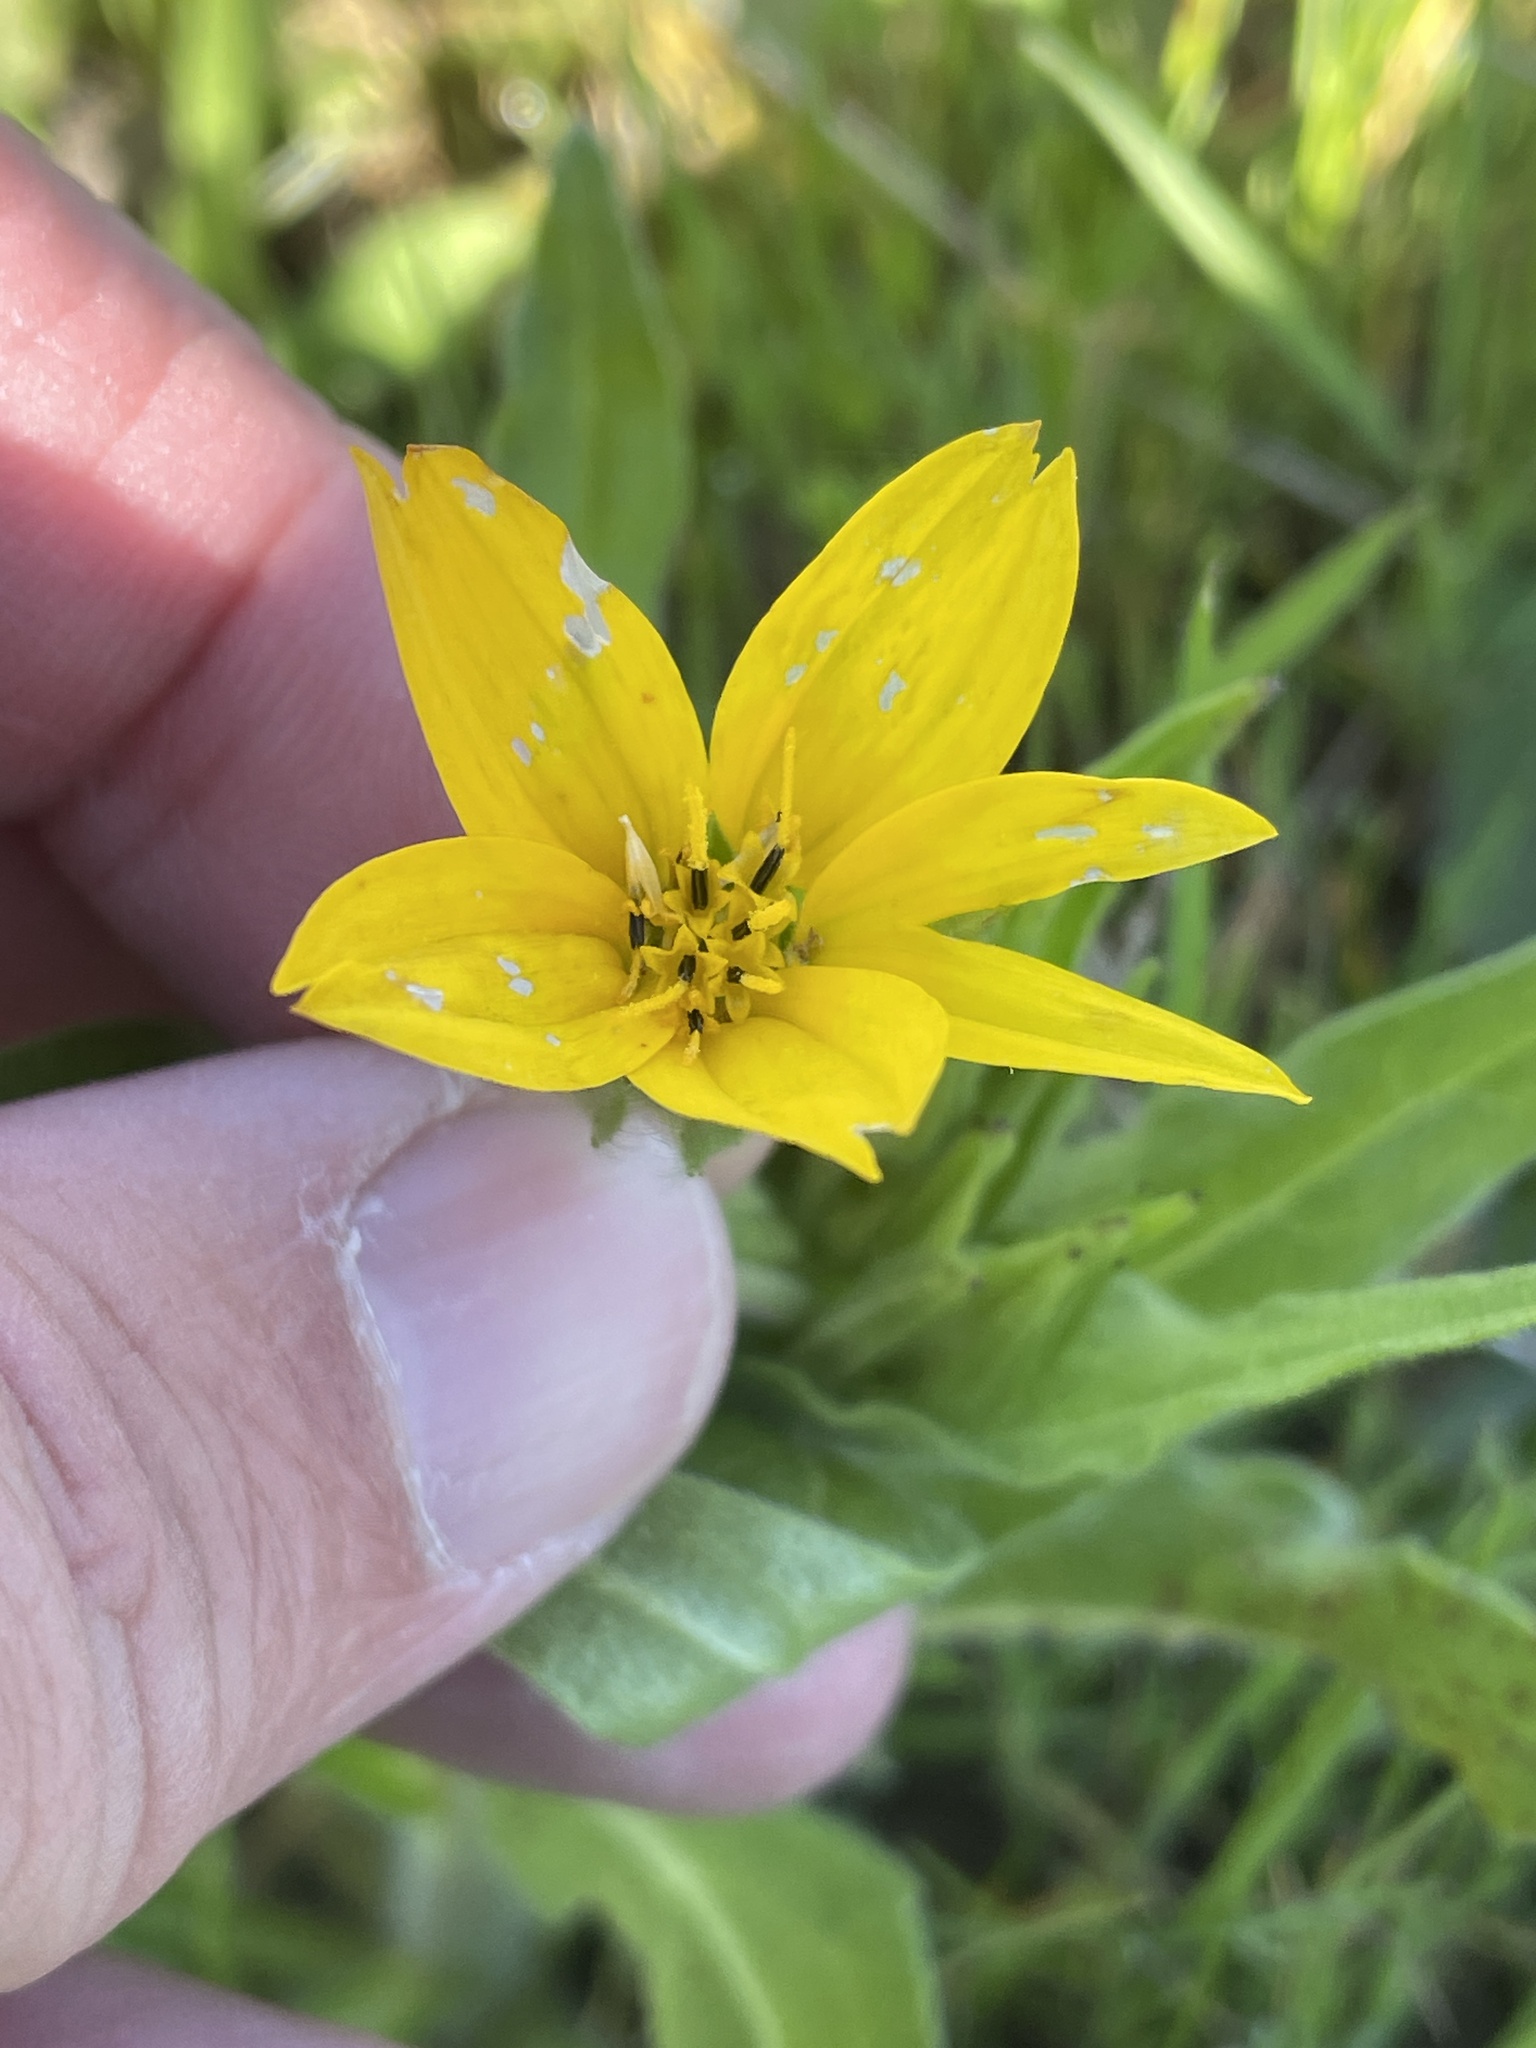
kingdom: Plantae
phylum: Tracheophyta
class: Magnoliopsida
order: Asterales
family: Asteraceae
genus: Lindheimera
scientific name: Lindheimera texana
